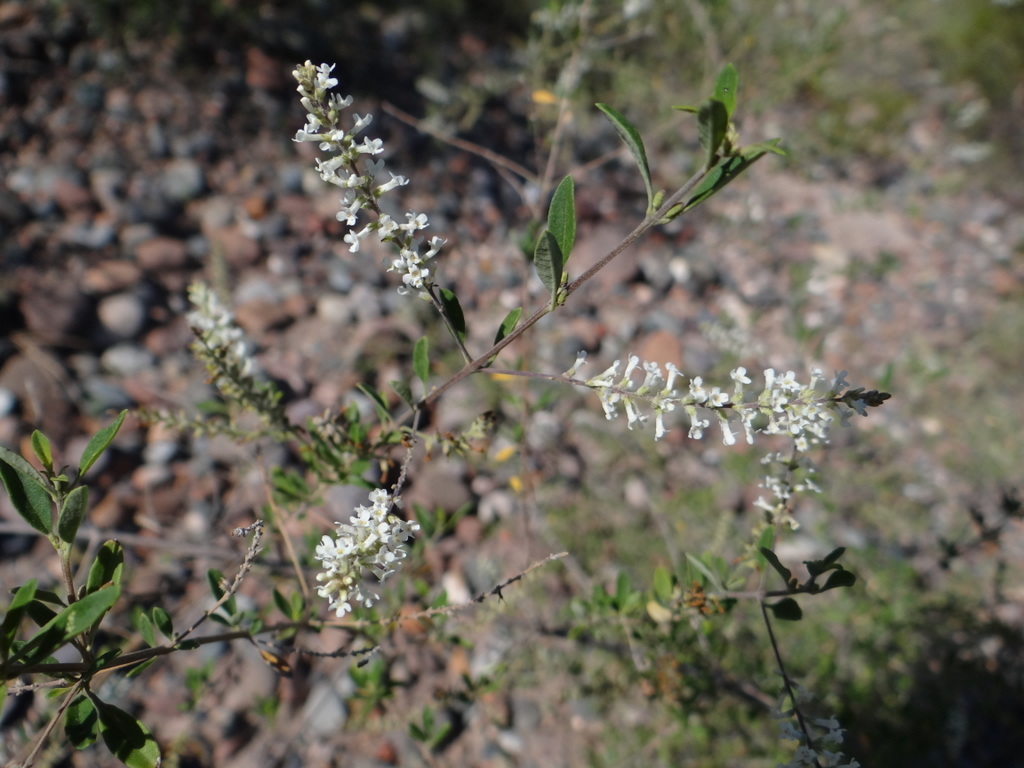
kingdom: Plantae
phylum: Tracheophyta
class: Magnoliopsida
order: Lamiales
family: Verbenaceae
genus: Aloysia
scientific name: Aloysia gratissima
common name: Common bee-brush
